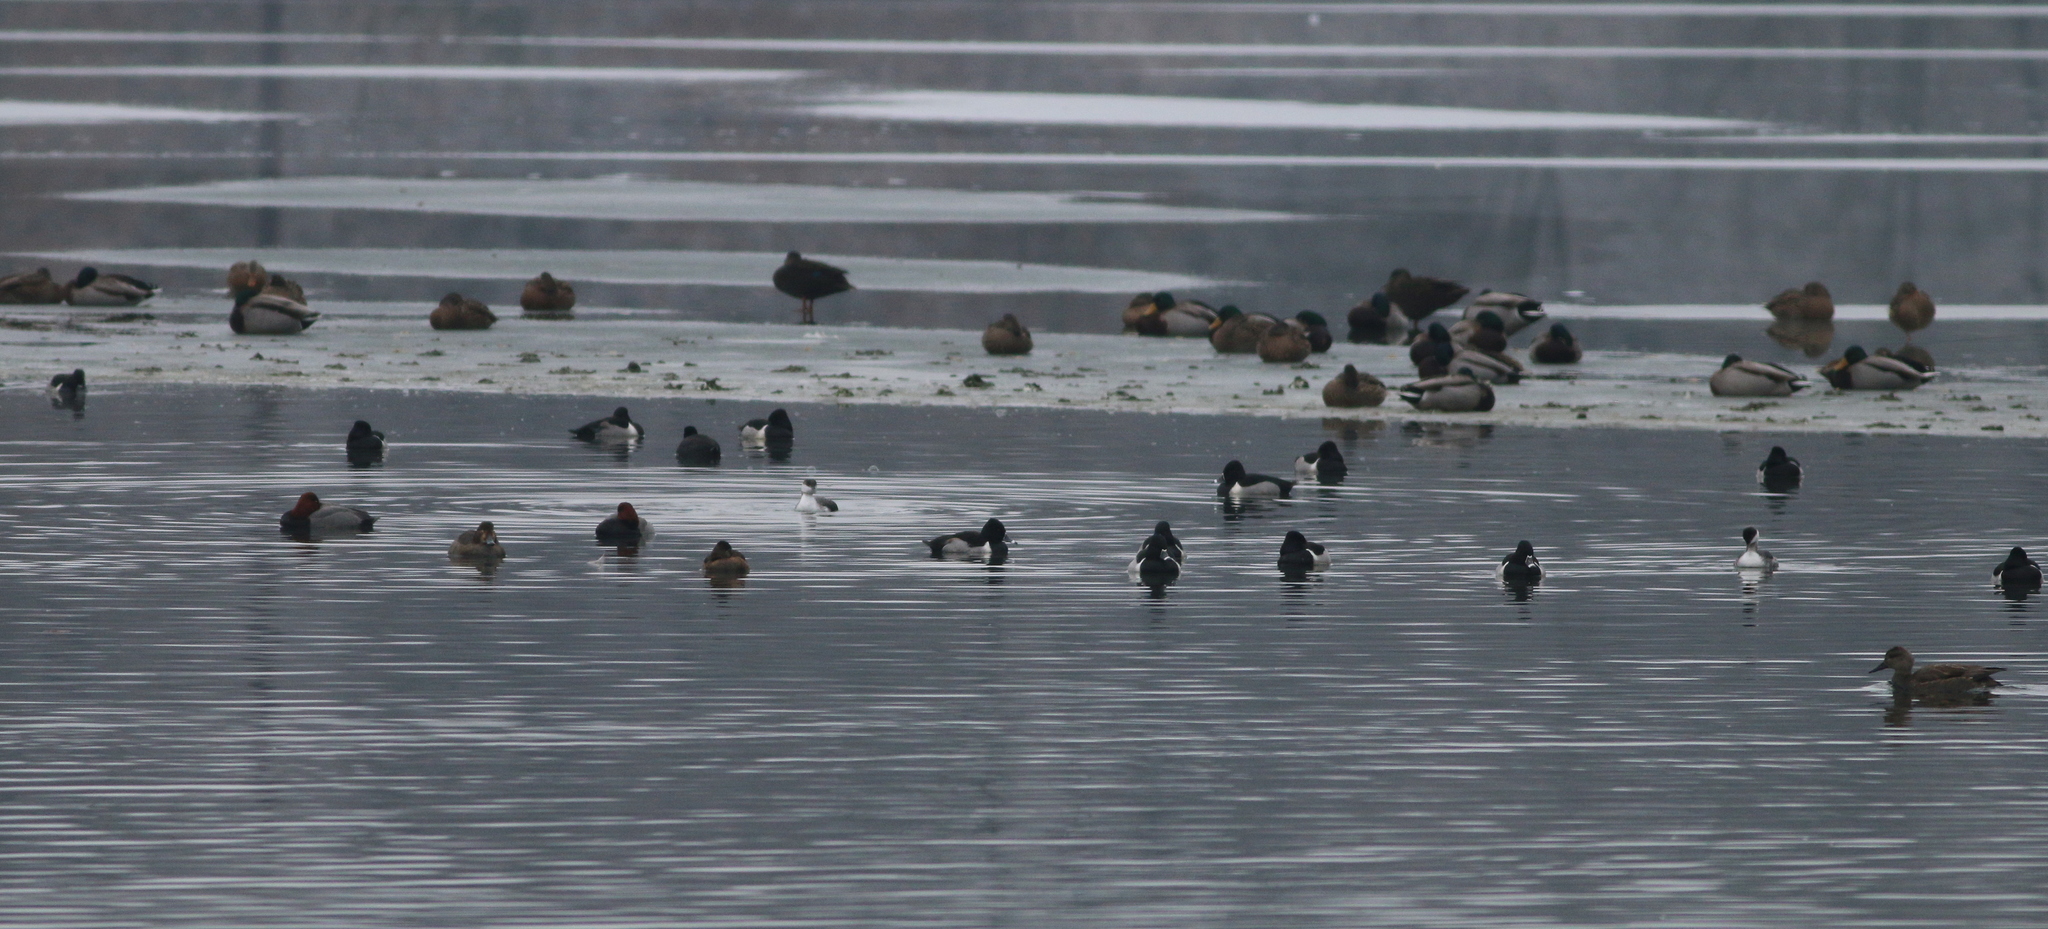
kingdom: Animalia
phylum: Chordata
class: Aves
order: Anseriformes
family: Anatidae
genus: Aythya
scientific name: Aythya collaris
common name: Ring-necked duck
